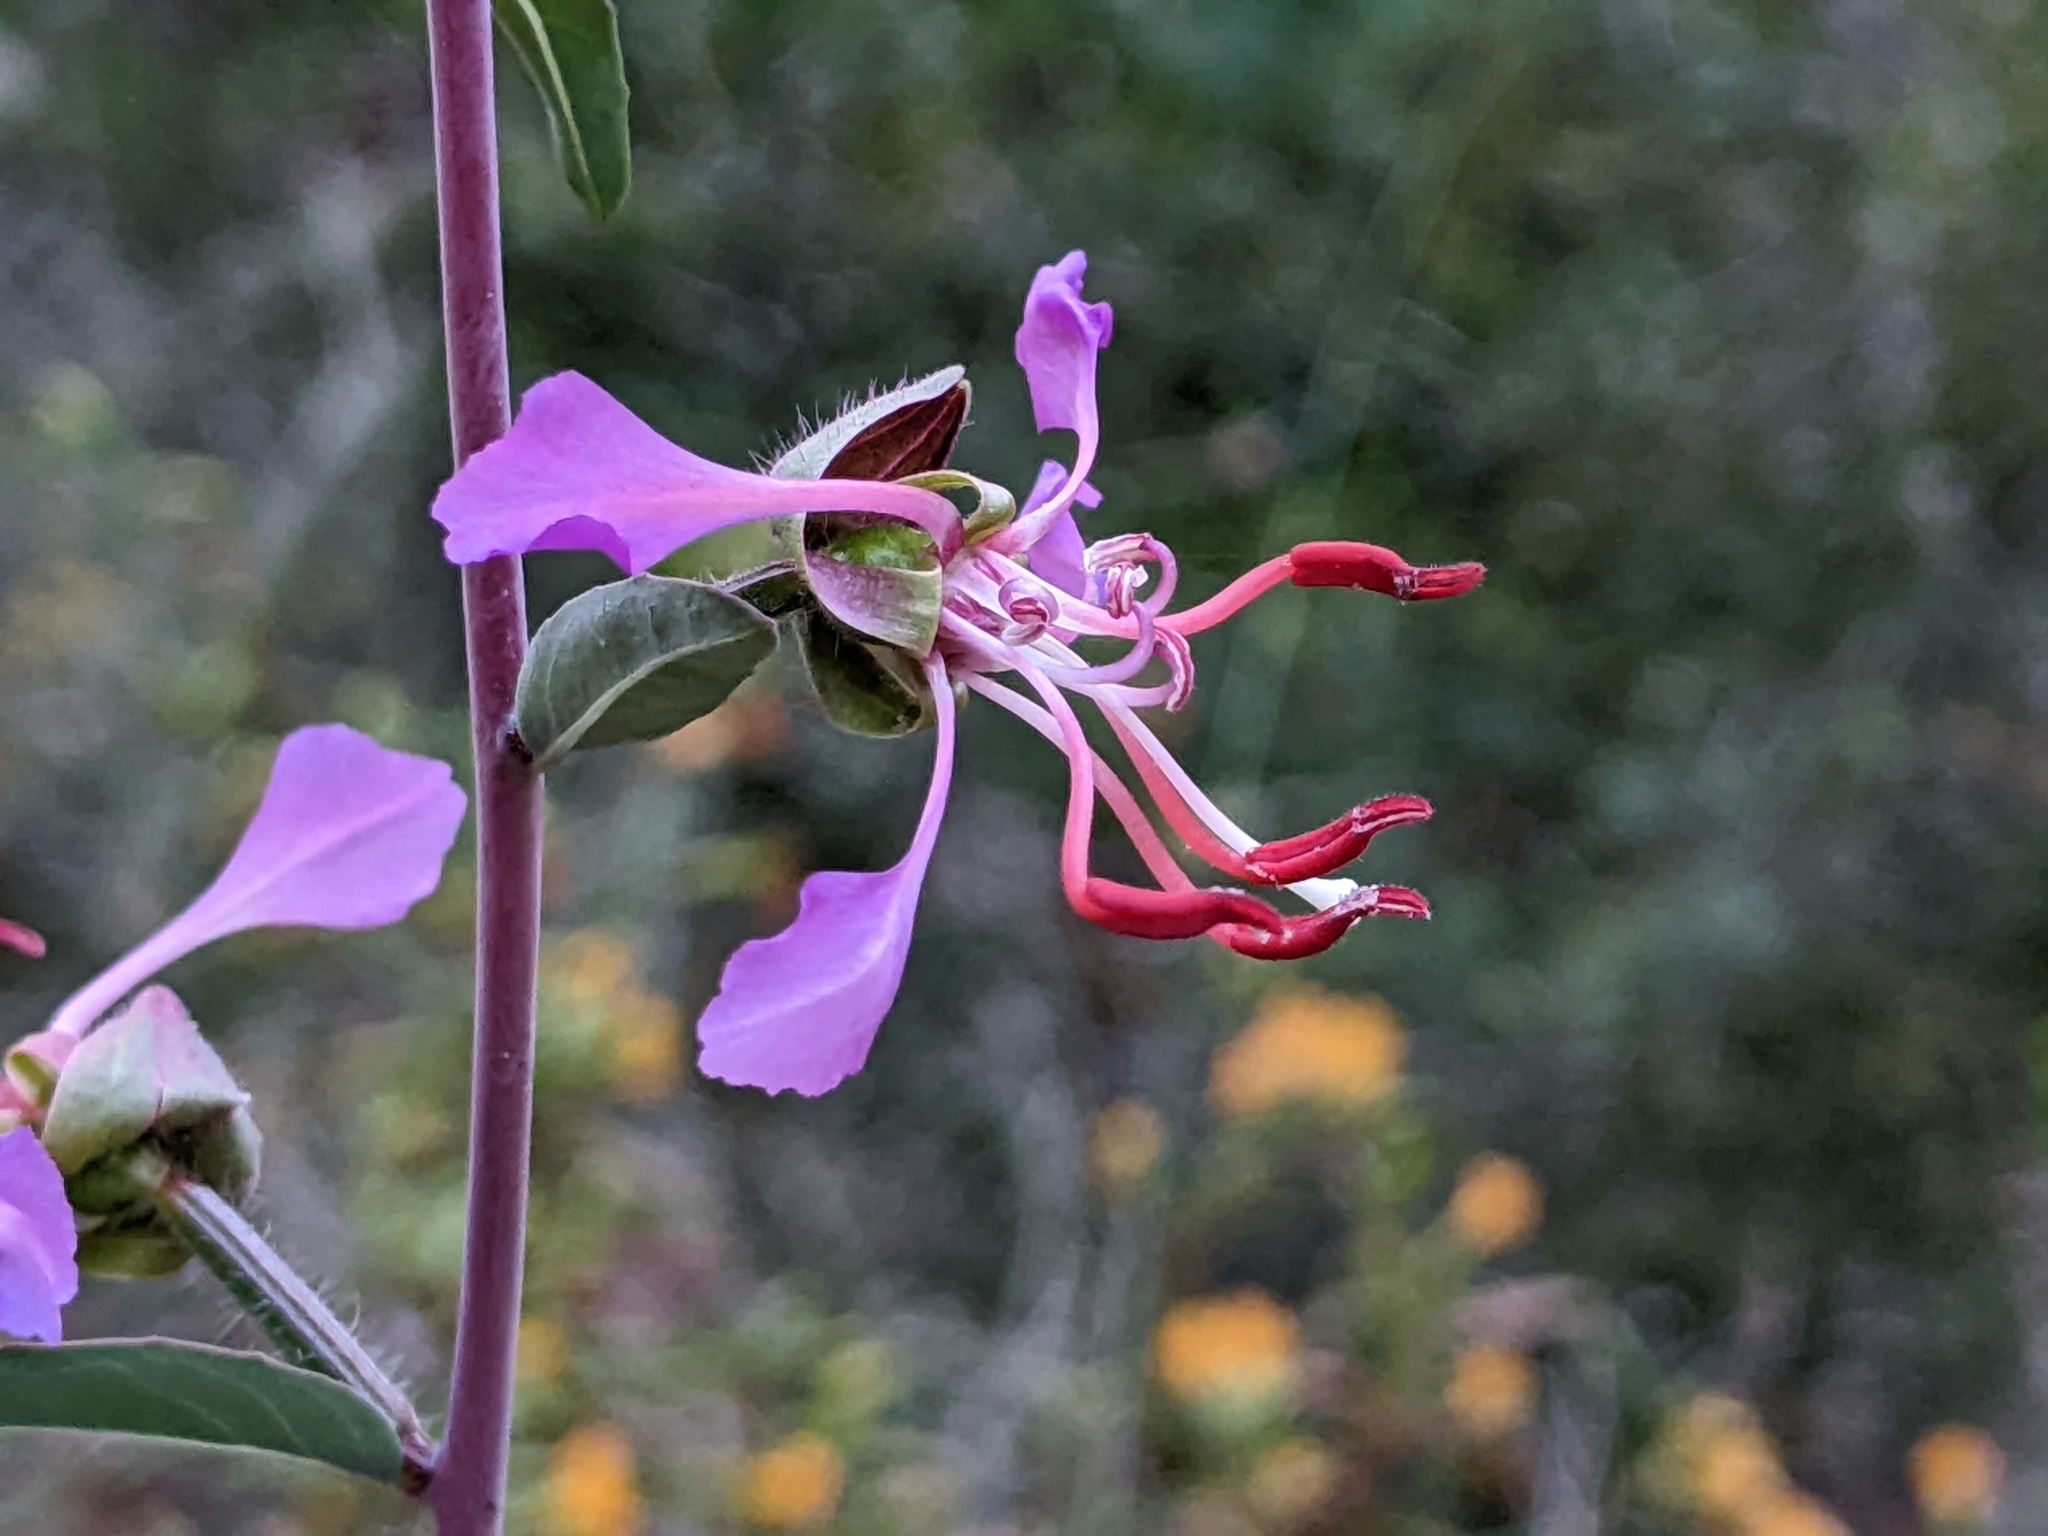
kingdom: Plantae
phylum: Tracheophyta
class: Magnoliopsida
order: Myrtales
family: Onagraceae
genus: Clarkia
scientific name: Clarkia unguiculata
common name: Clarkia
